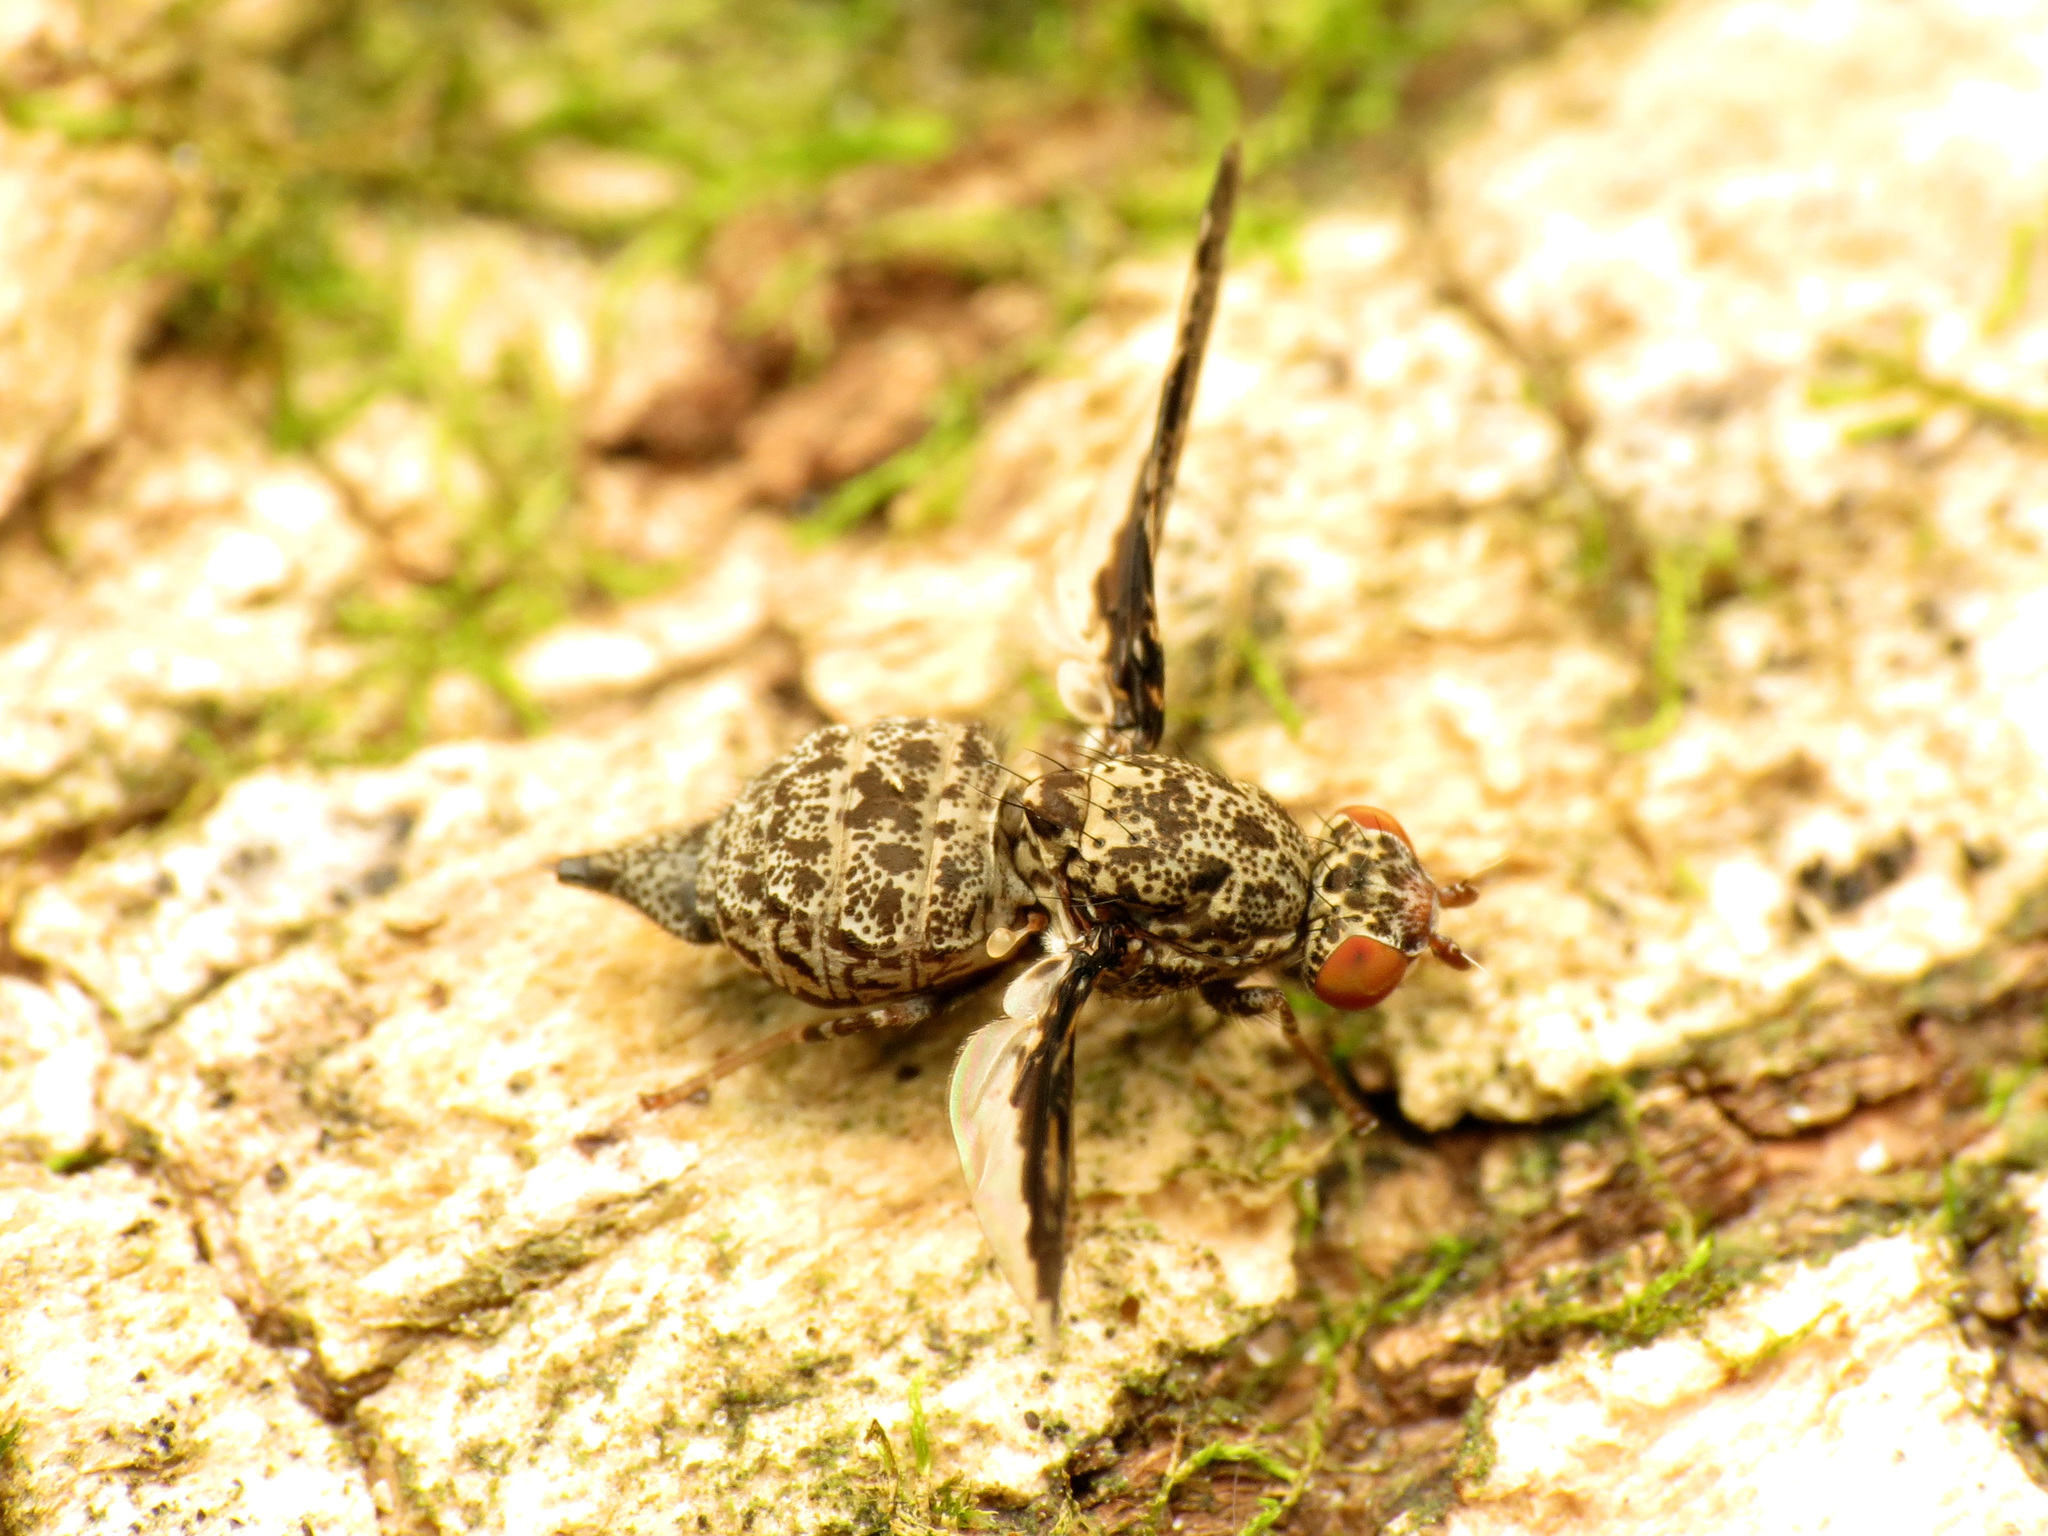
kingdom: Animalia
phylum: Arthropoda
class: Insecta
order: Diptera
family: Ulidiidae
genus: Callopistromyia
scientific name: Callopistromyia strigula
